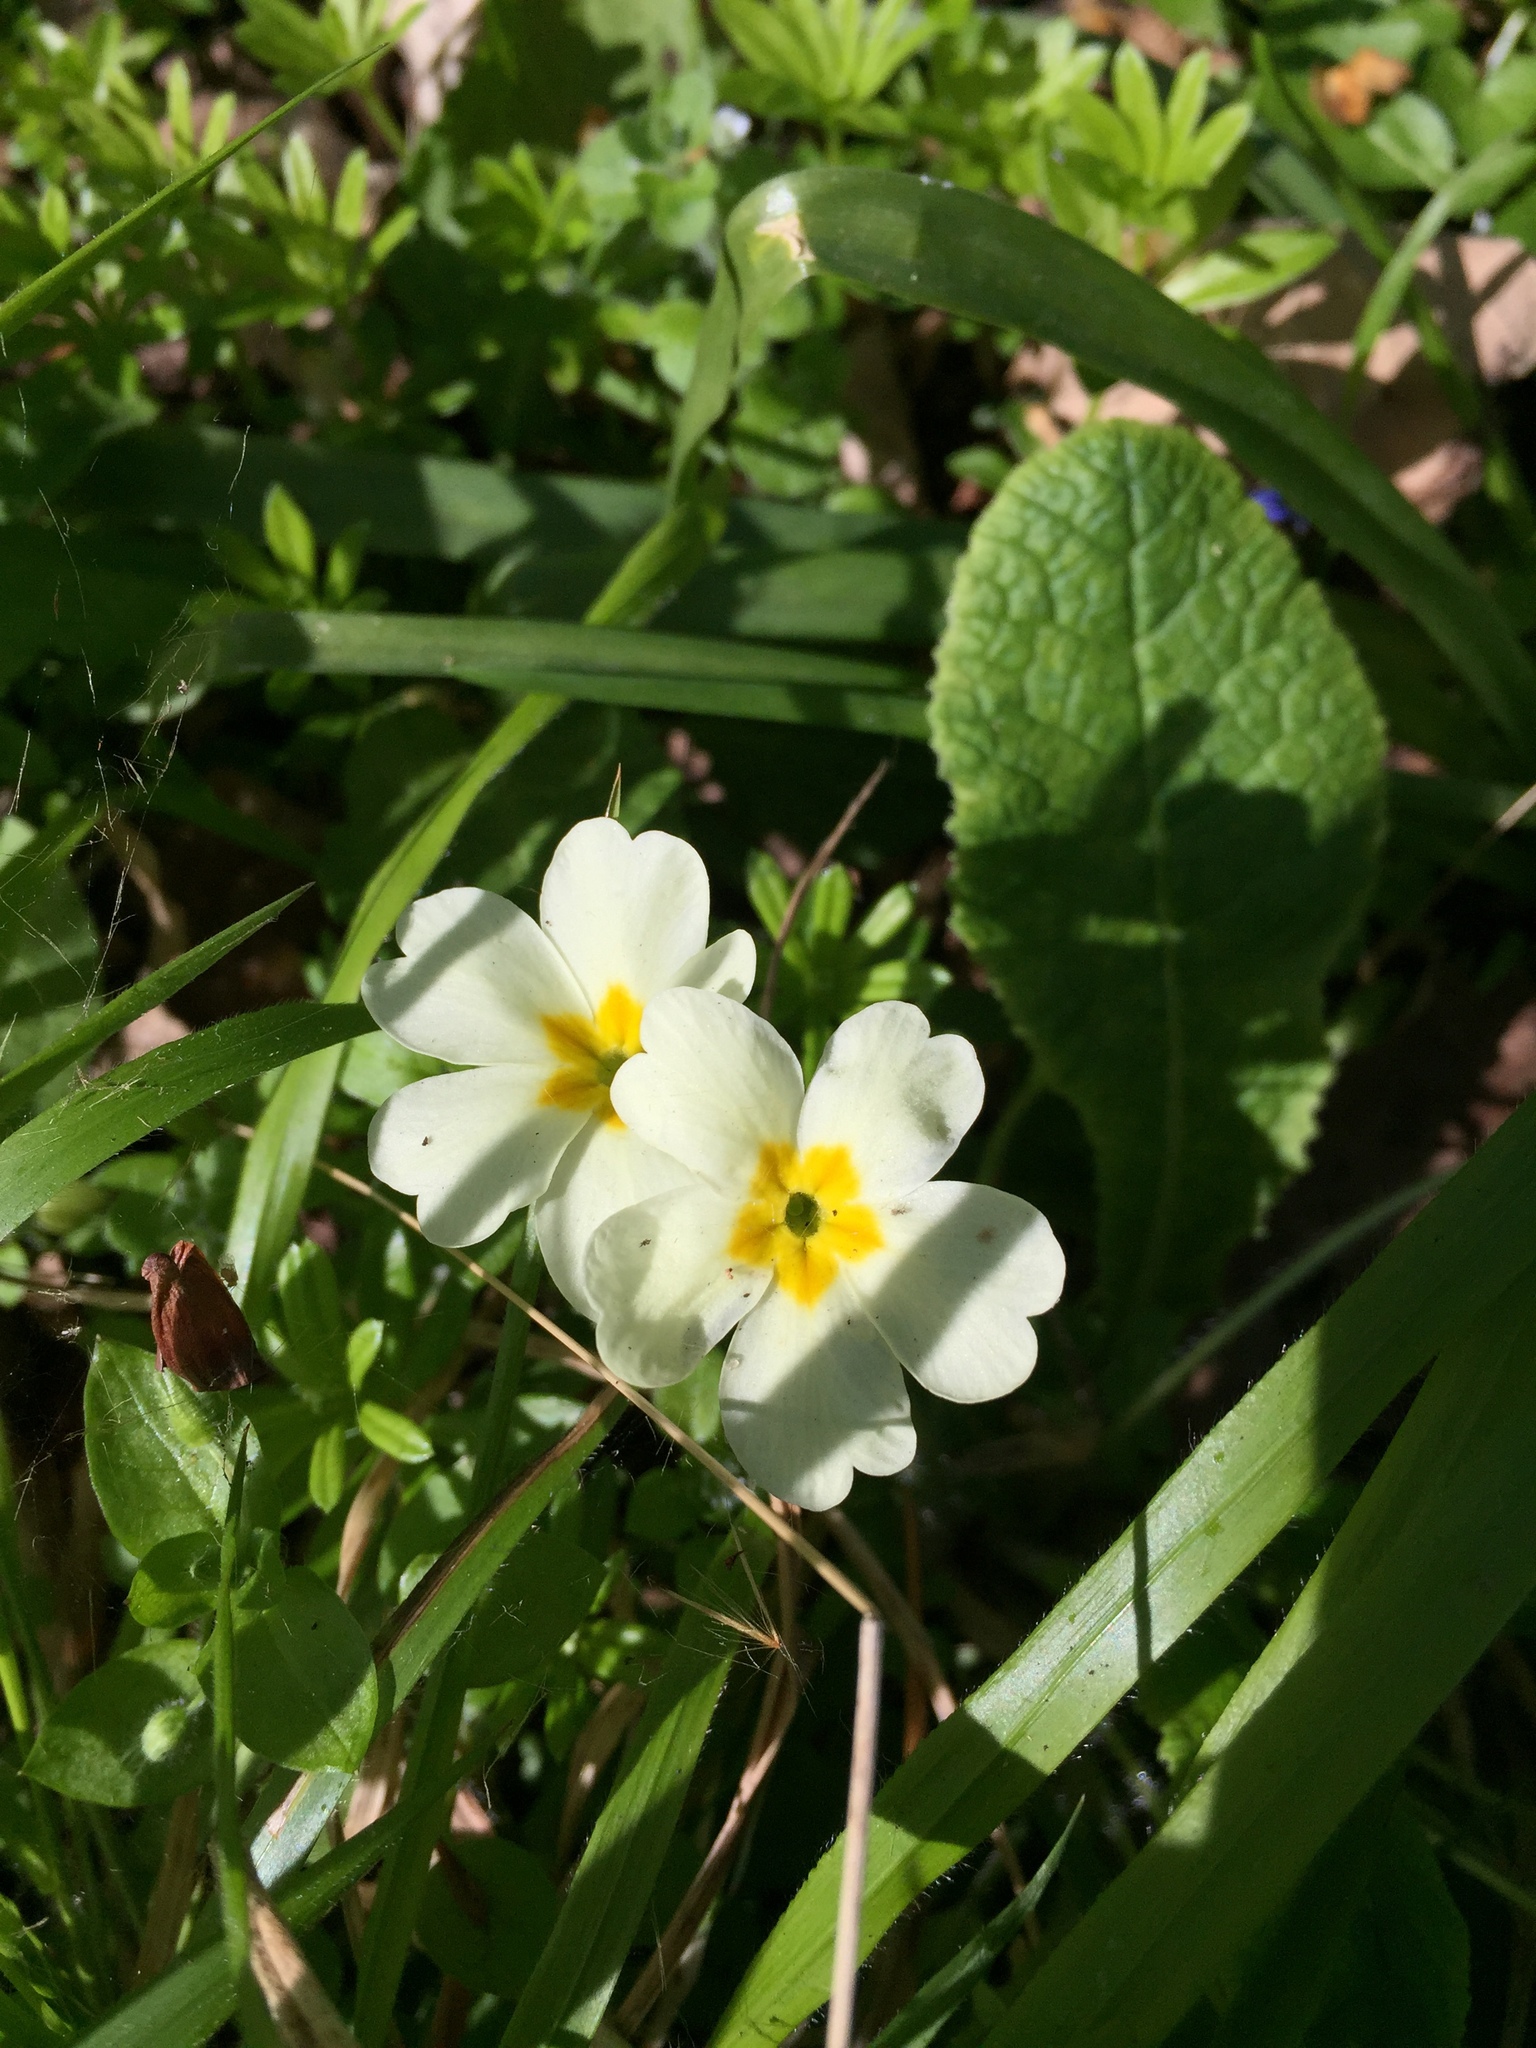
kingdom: Plantae
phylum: Tracheophyta
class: Magnoliopsida
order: Ericales
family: Primulaceae
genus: Primula
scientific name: Primula vulgaris
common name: Primrose
